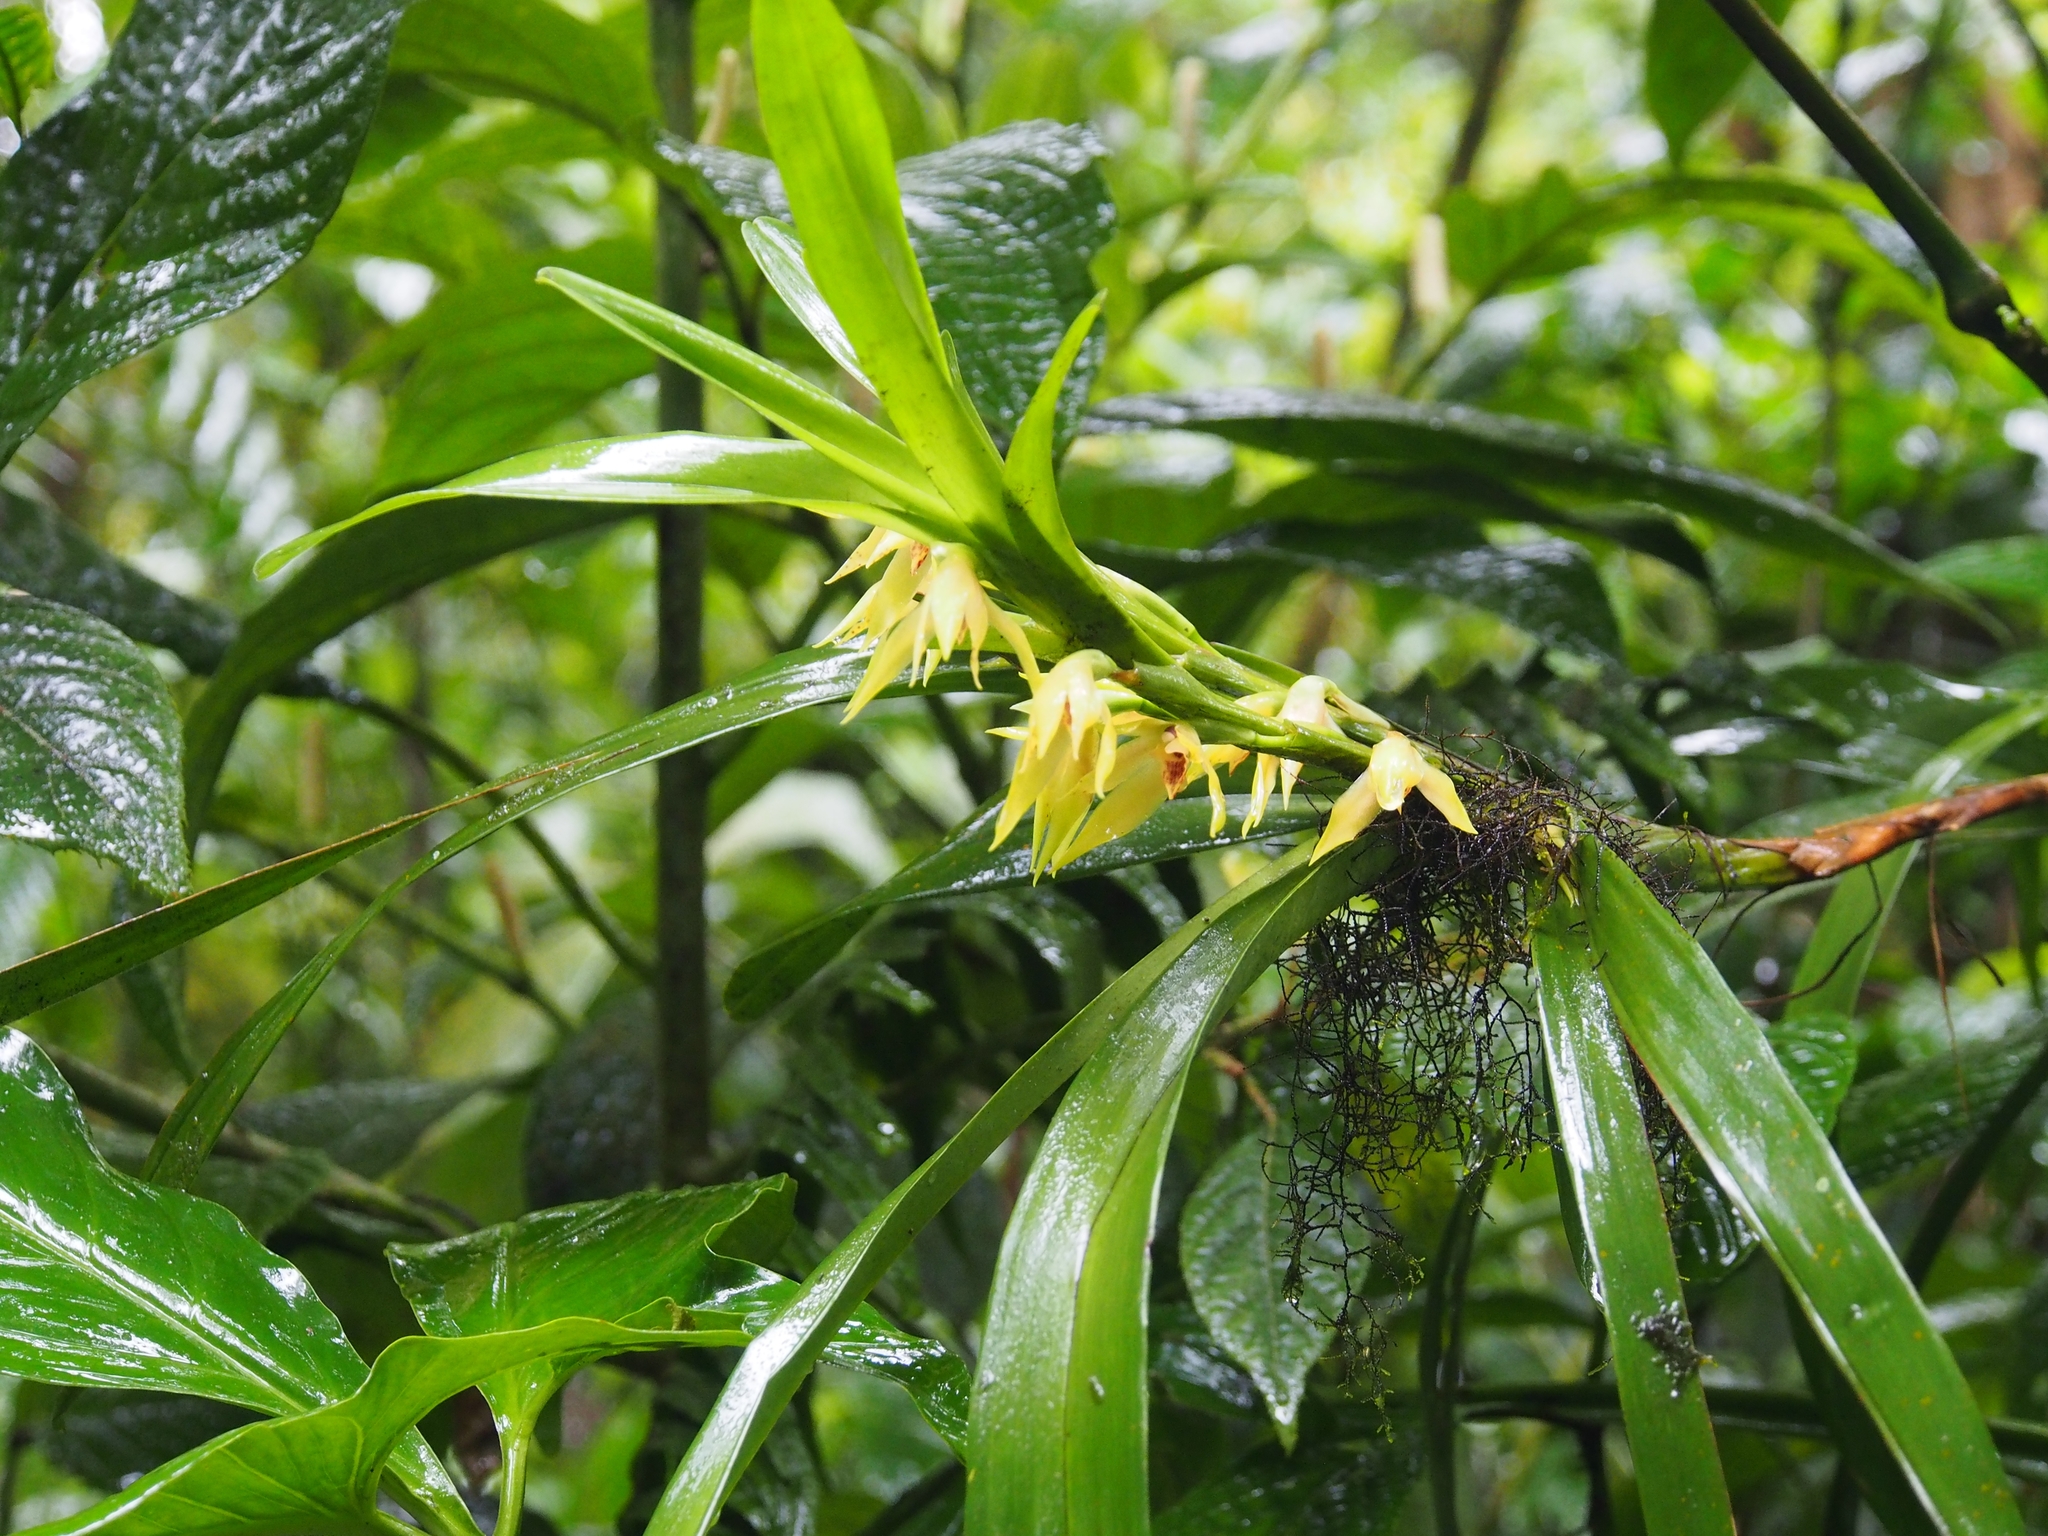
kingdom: Plantae
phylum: Tracheophyta
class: Liliopsida
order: Asparagales
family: Orchidaceae
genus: Maxillaria
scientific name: Maxillaria parvilabia
